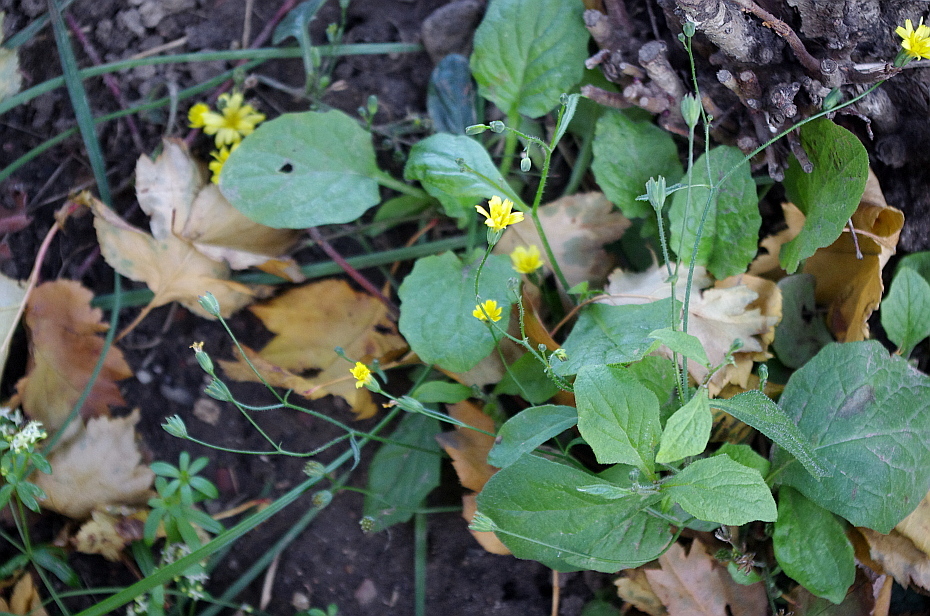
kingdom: Plantae
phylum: Tracheophyta
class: Magnoliopsida
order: Asterales
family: Asteraceae
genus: Lapsana
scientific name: Lapsana communis
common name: Nipplewort
